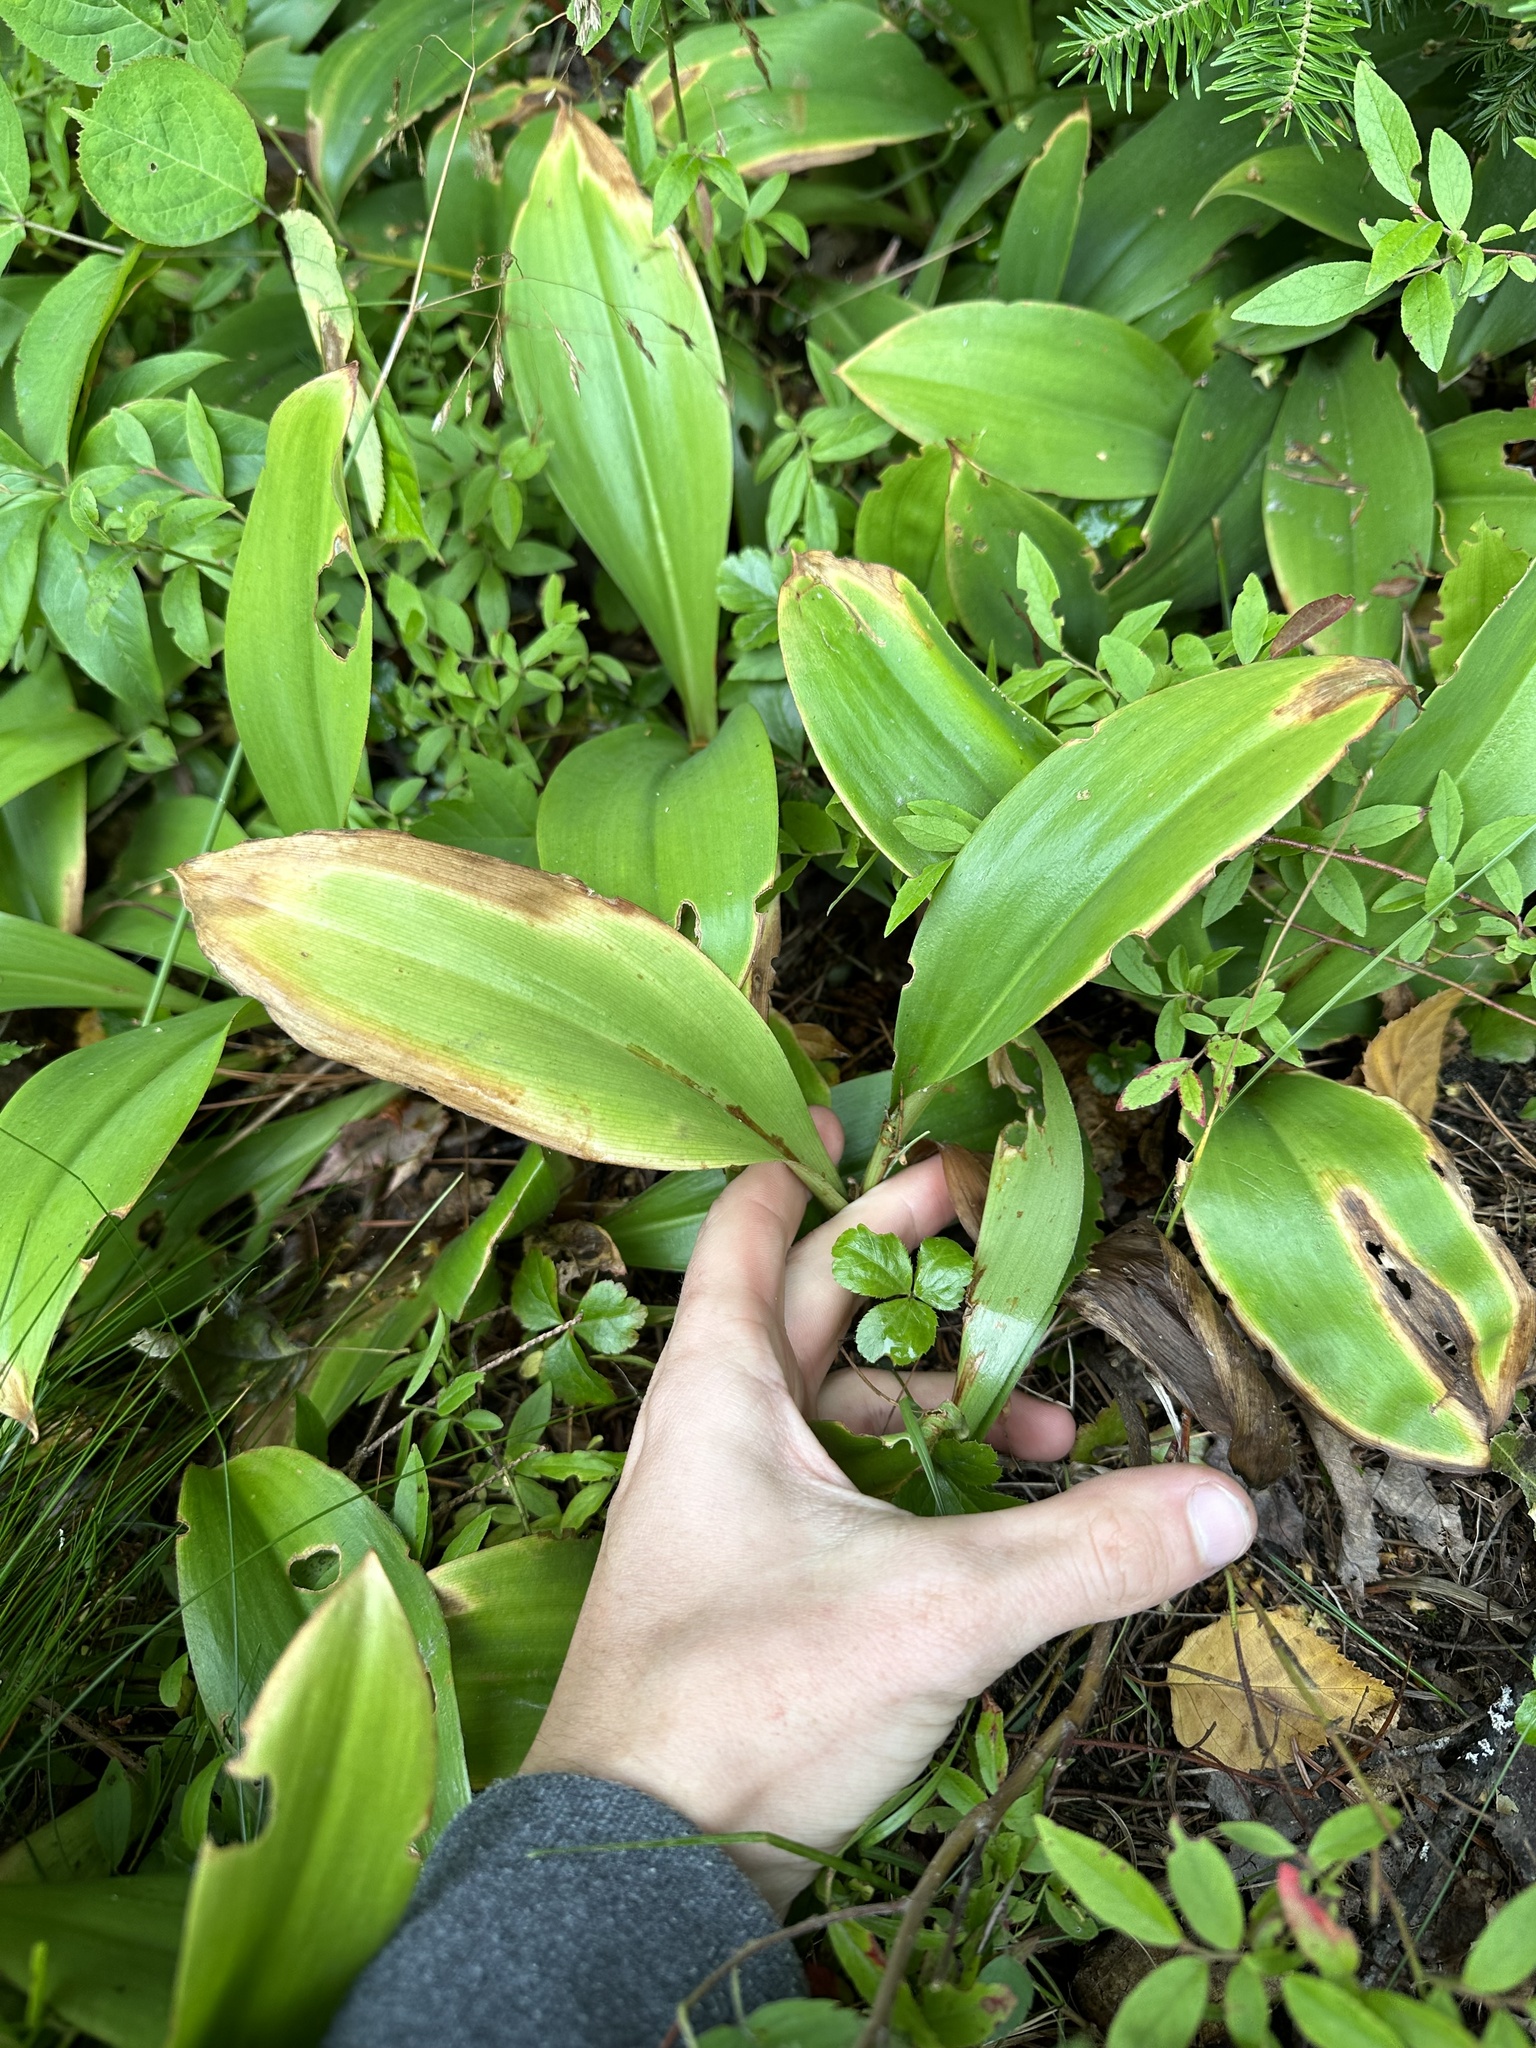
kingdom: Plantae
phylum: Tracheophyta
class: Liliopsida
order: Liliales
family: Liliaceae
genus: Clintonia
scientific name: Clintonia borealis
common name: Yellow clintonia
